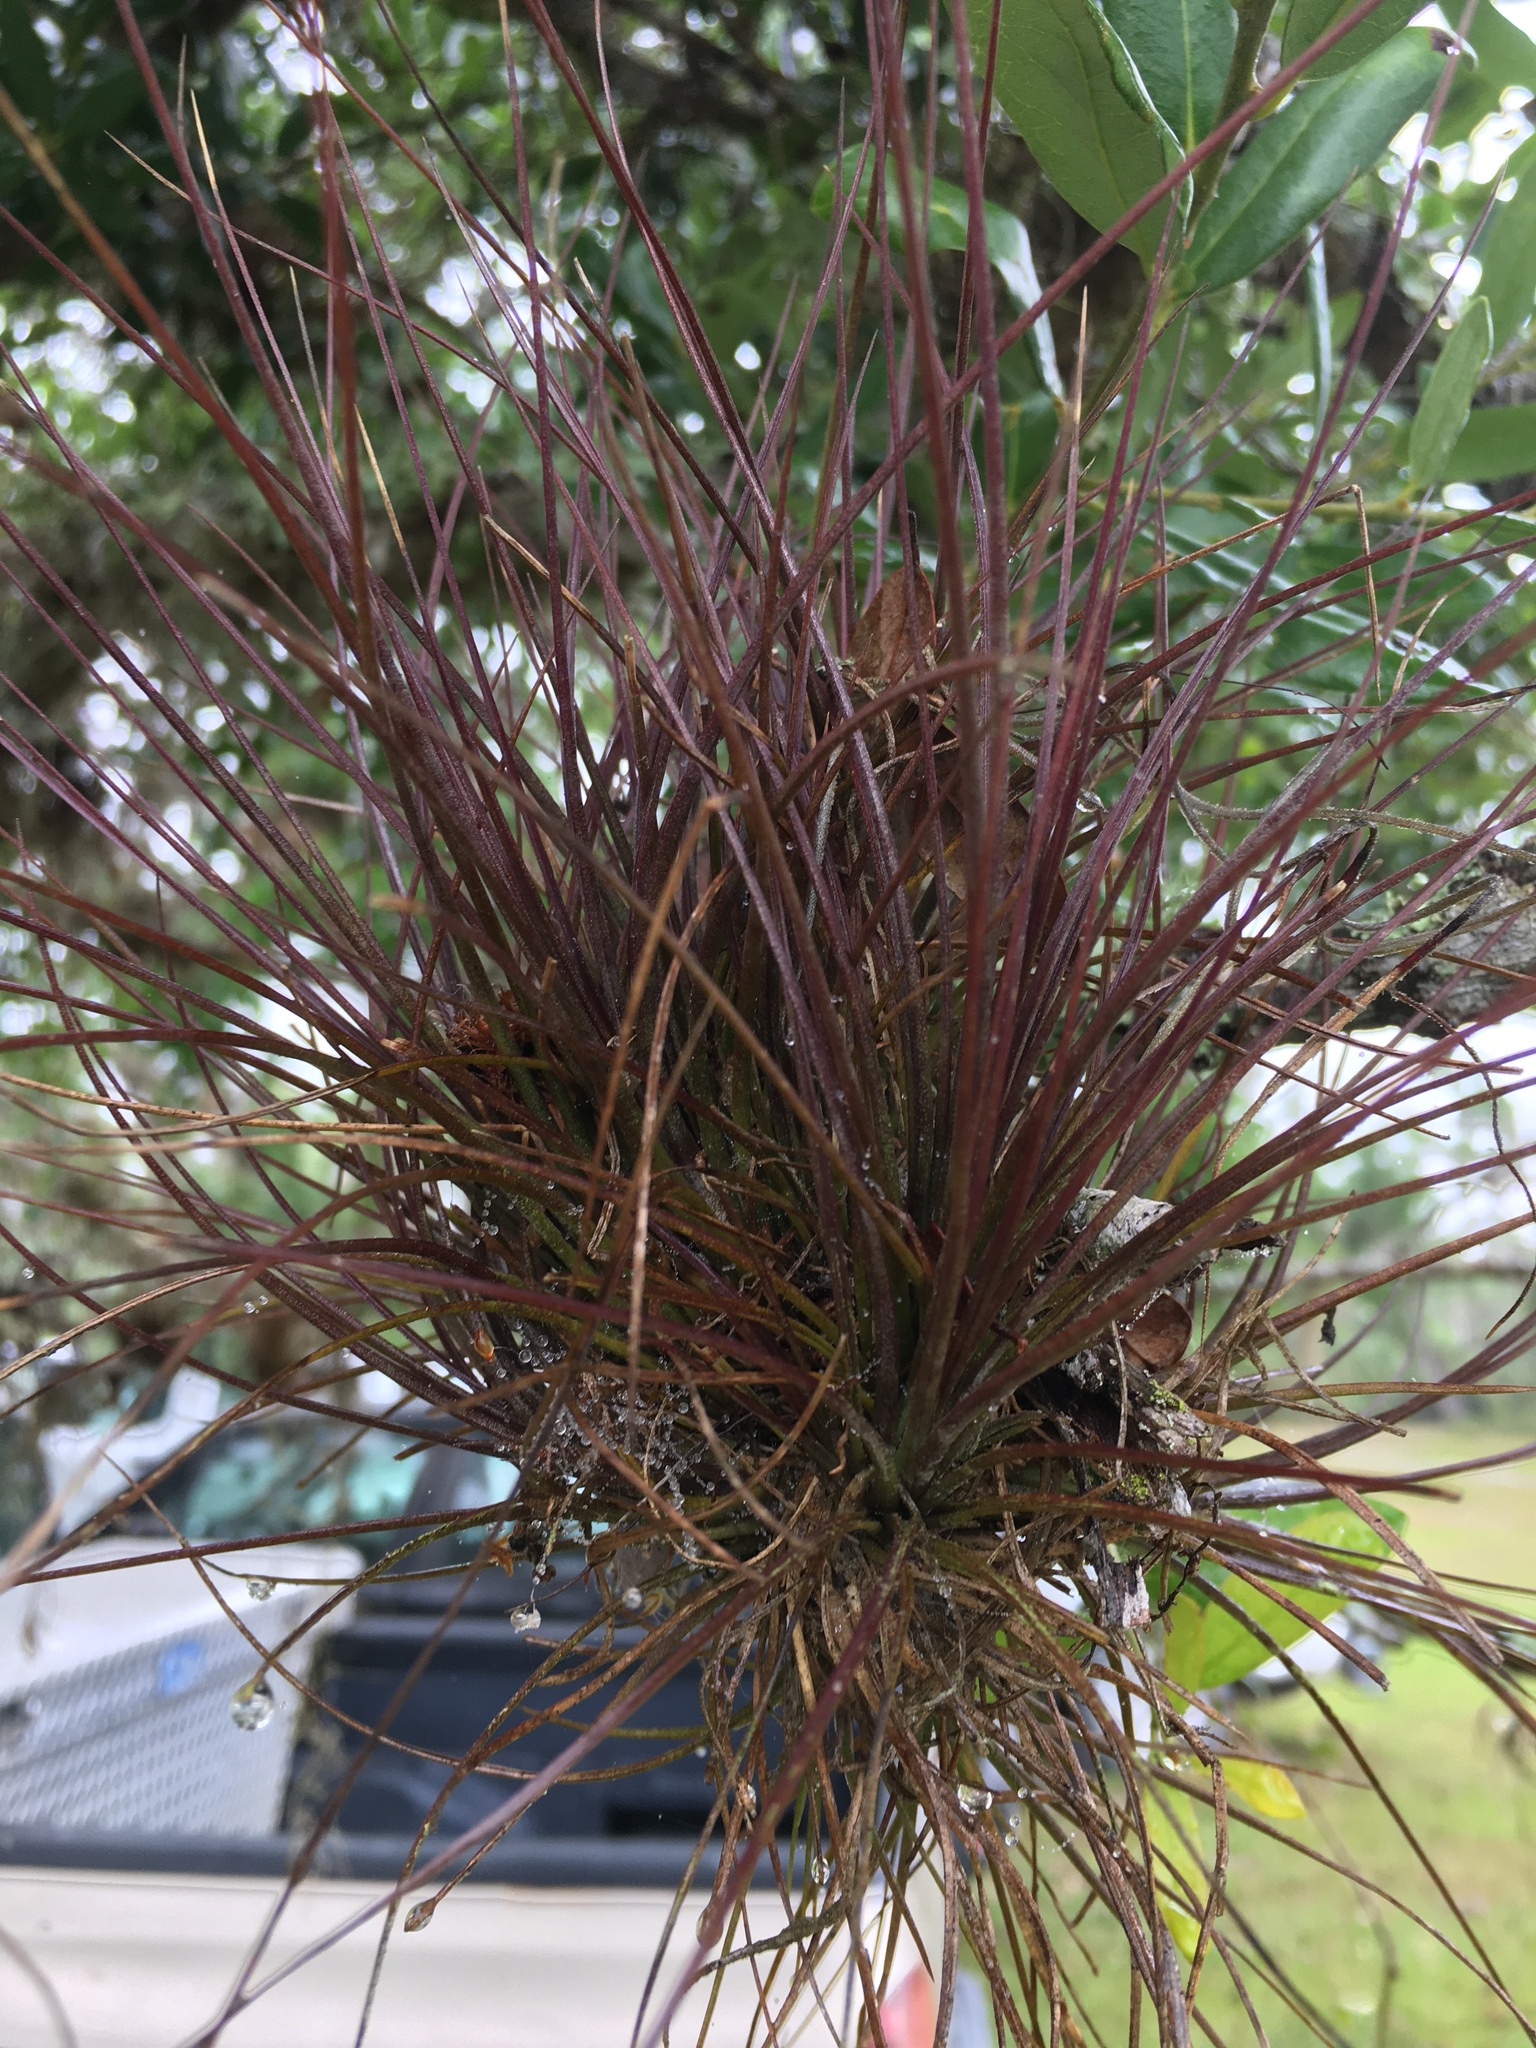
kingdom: Plantae
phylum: Tracheophyta
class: Liliopsida
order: Poales
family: Bromeliaceae
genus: Tillandsia
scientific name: Tillandsia setacea
